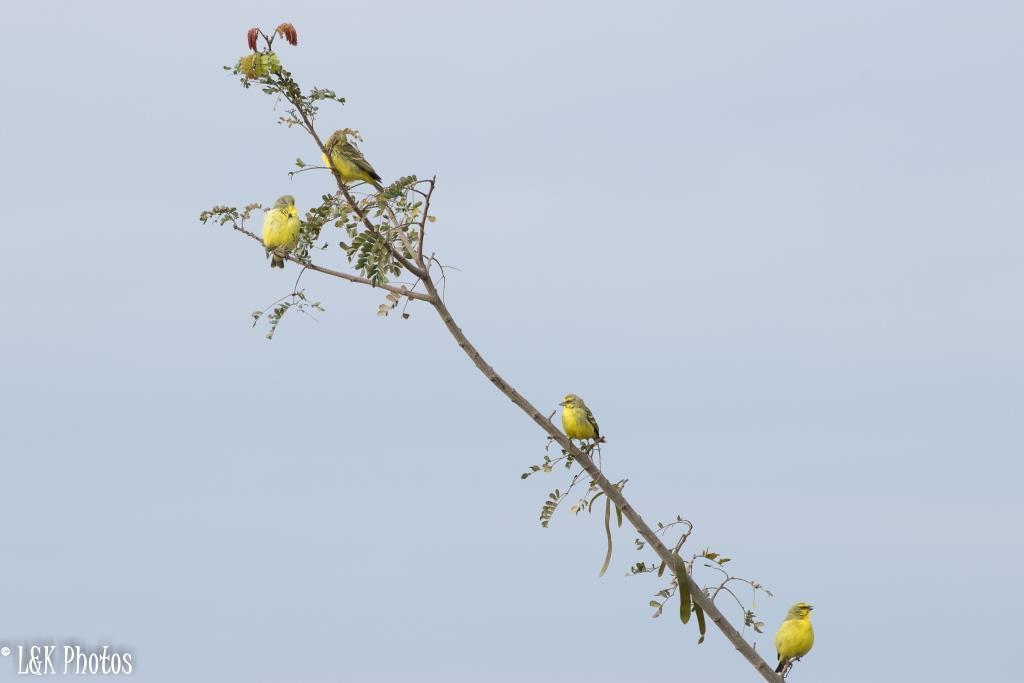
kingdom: Animalia
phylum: Chordata
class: Aves
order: Passeriformes
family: Fringillidae
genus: Crithagra
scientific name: Crithagra mozambica
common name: Yellow-fronted canary
